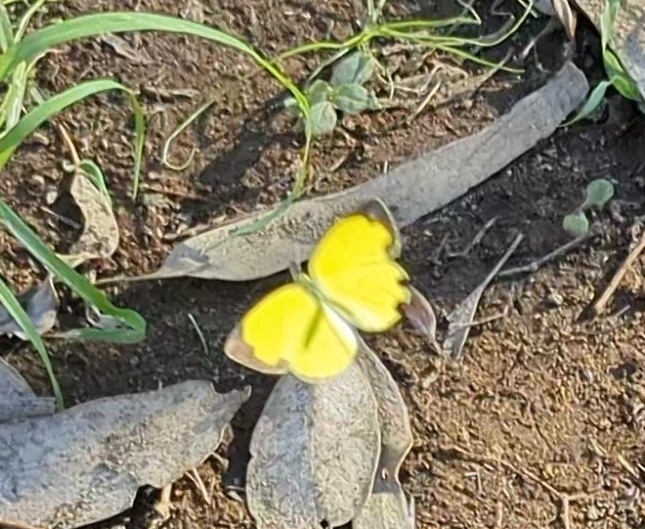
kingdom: Animalia
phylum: Arthropoda
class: Insecta
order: Lepidoptera
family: Pieridae
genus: Eurema
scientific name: Eurema hecabe
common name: Pale grass yellow
